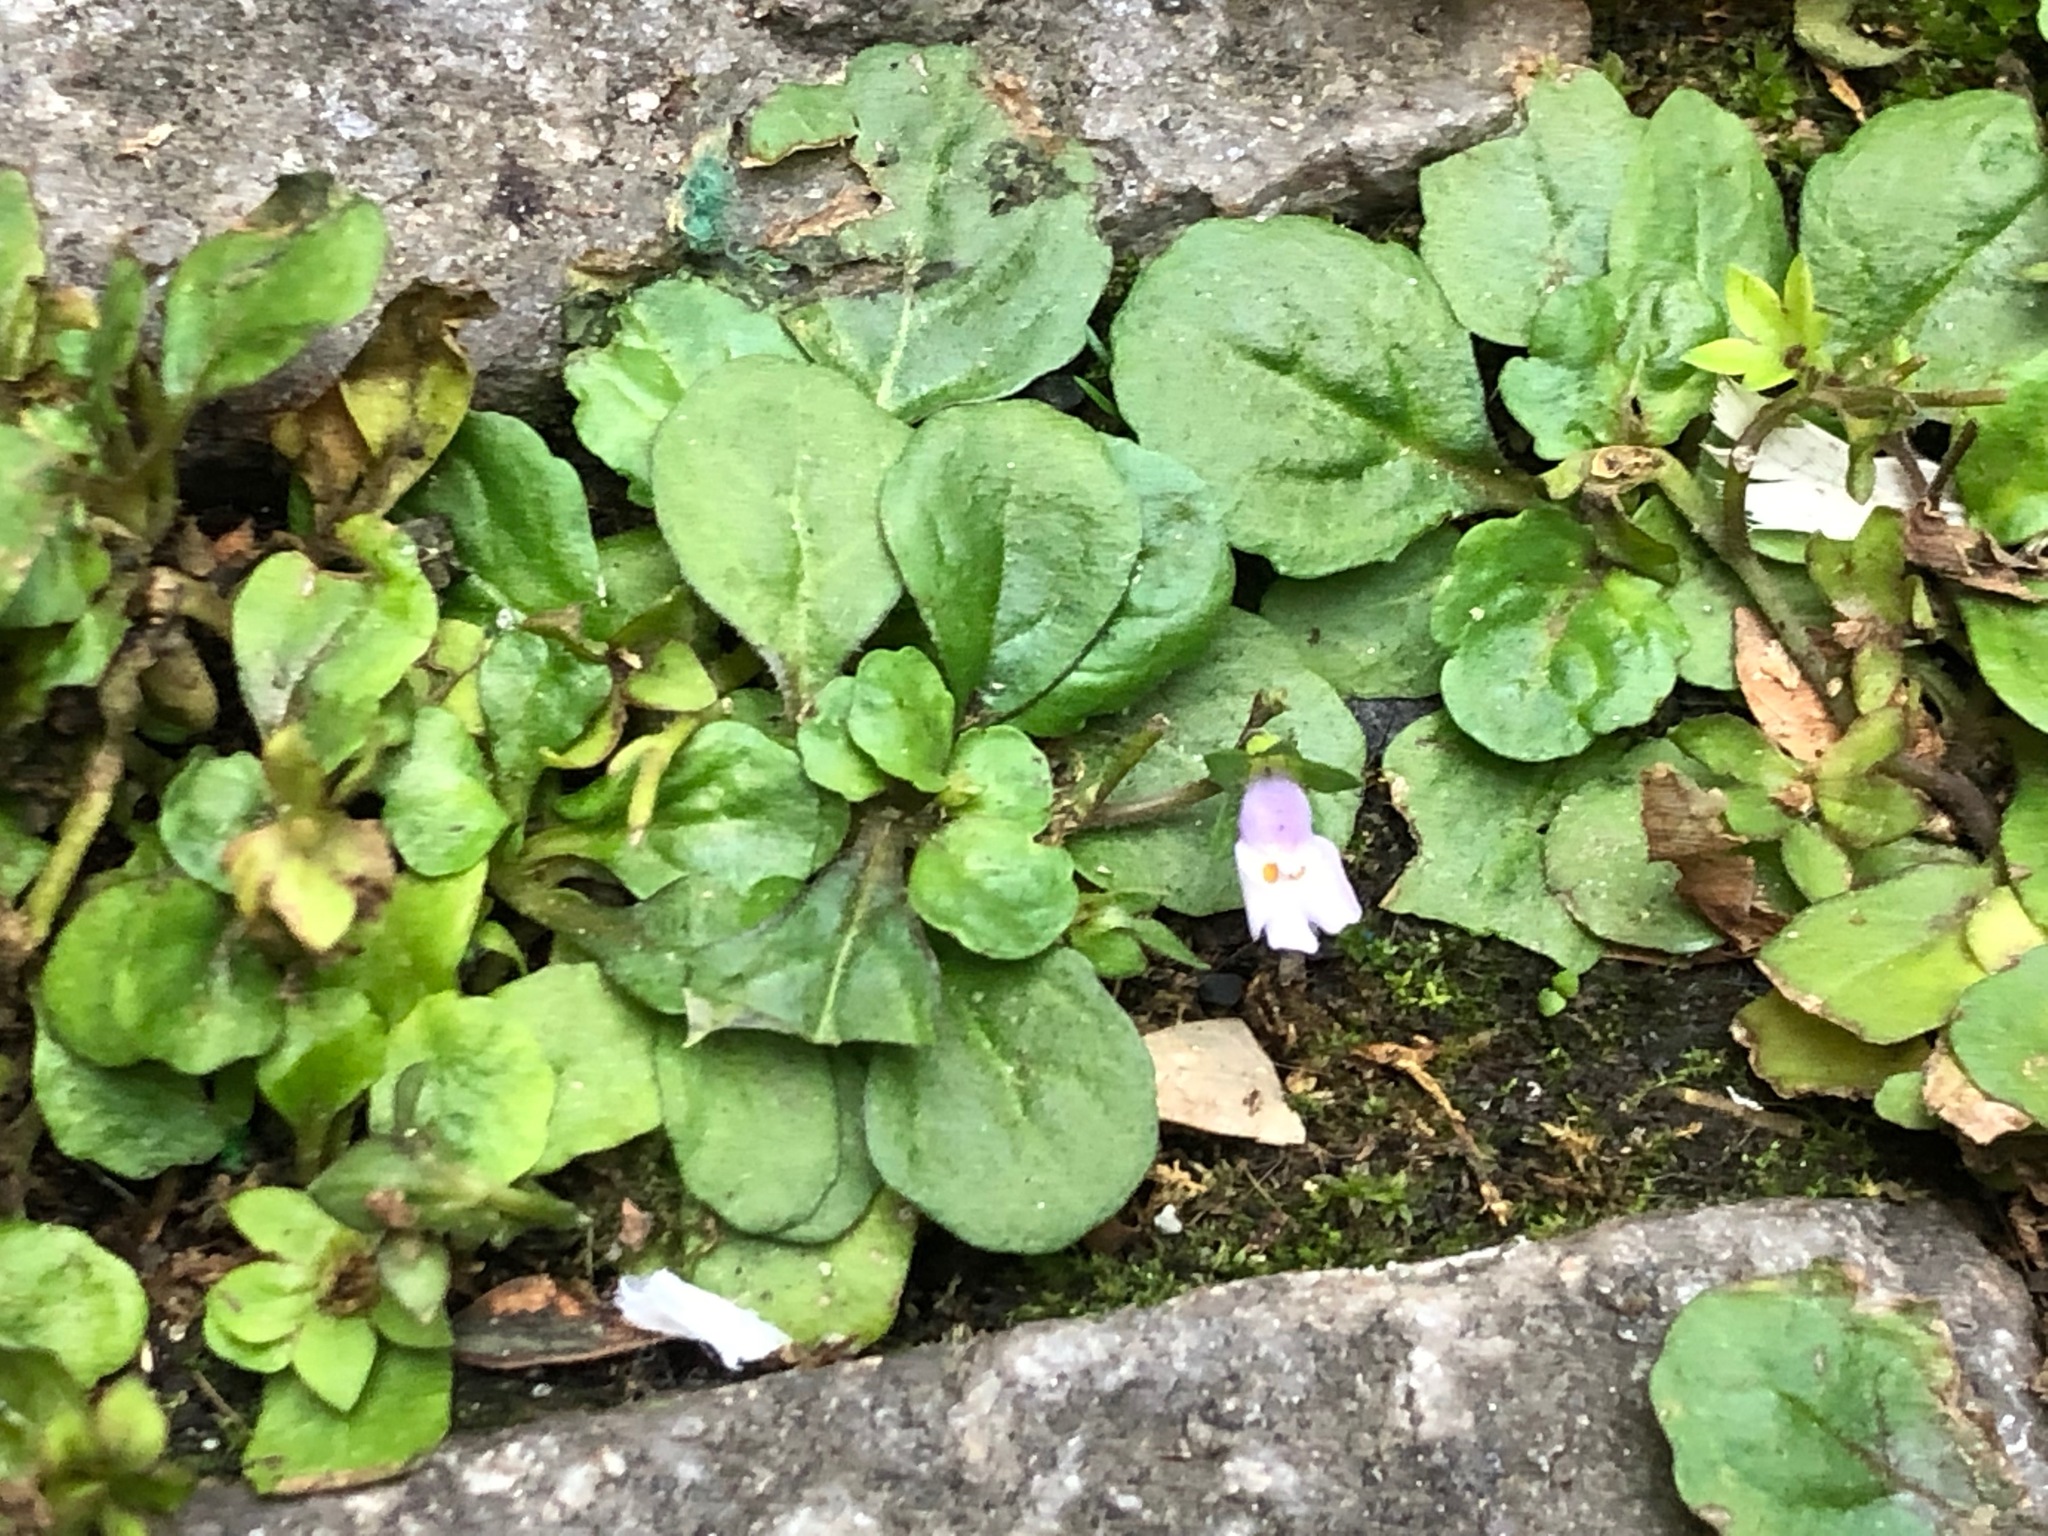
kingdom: Plantae
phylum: Tracheophyta
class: Magnoliopsida
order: Lamiales
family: Mazaceae
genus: Mazus
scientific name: Mazus pumilus
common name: Japanese mazus
